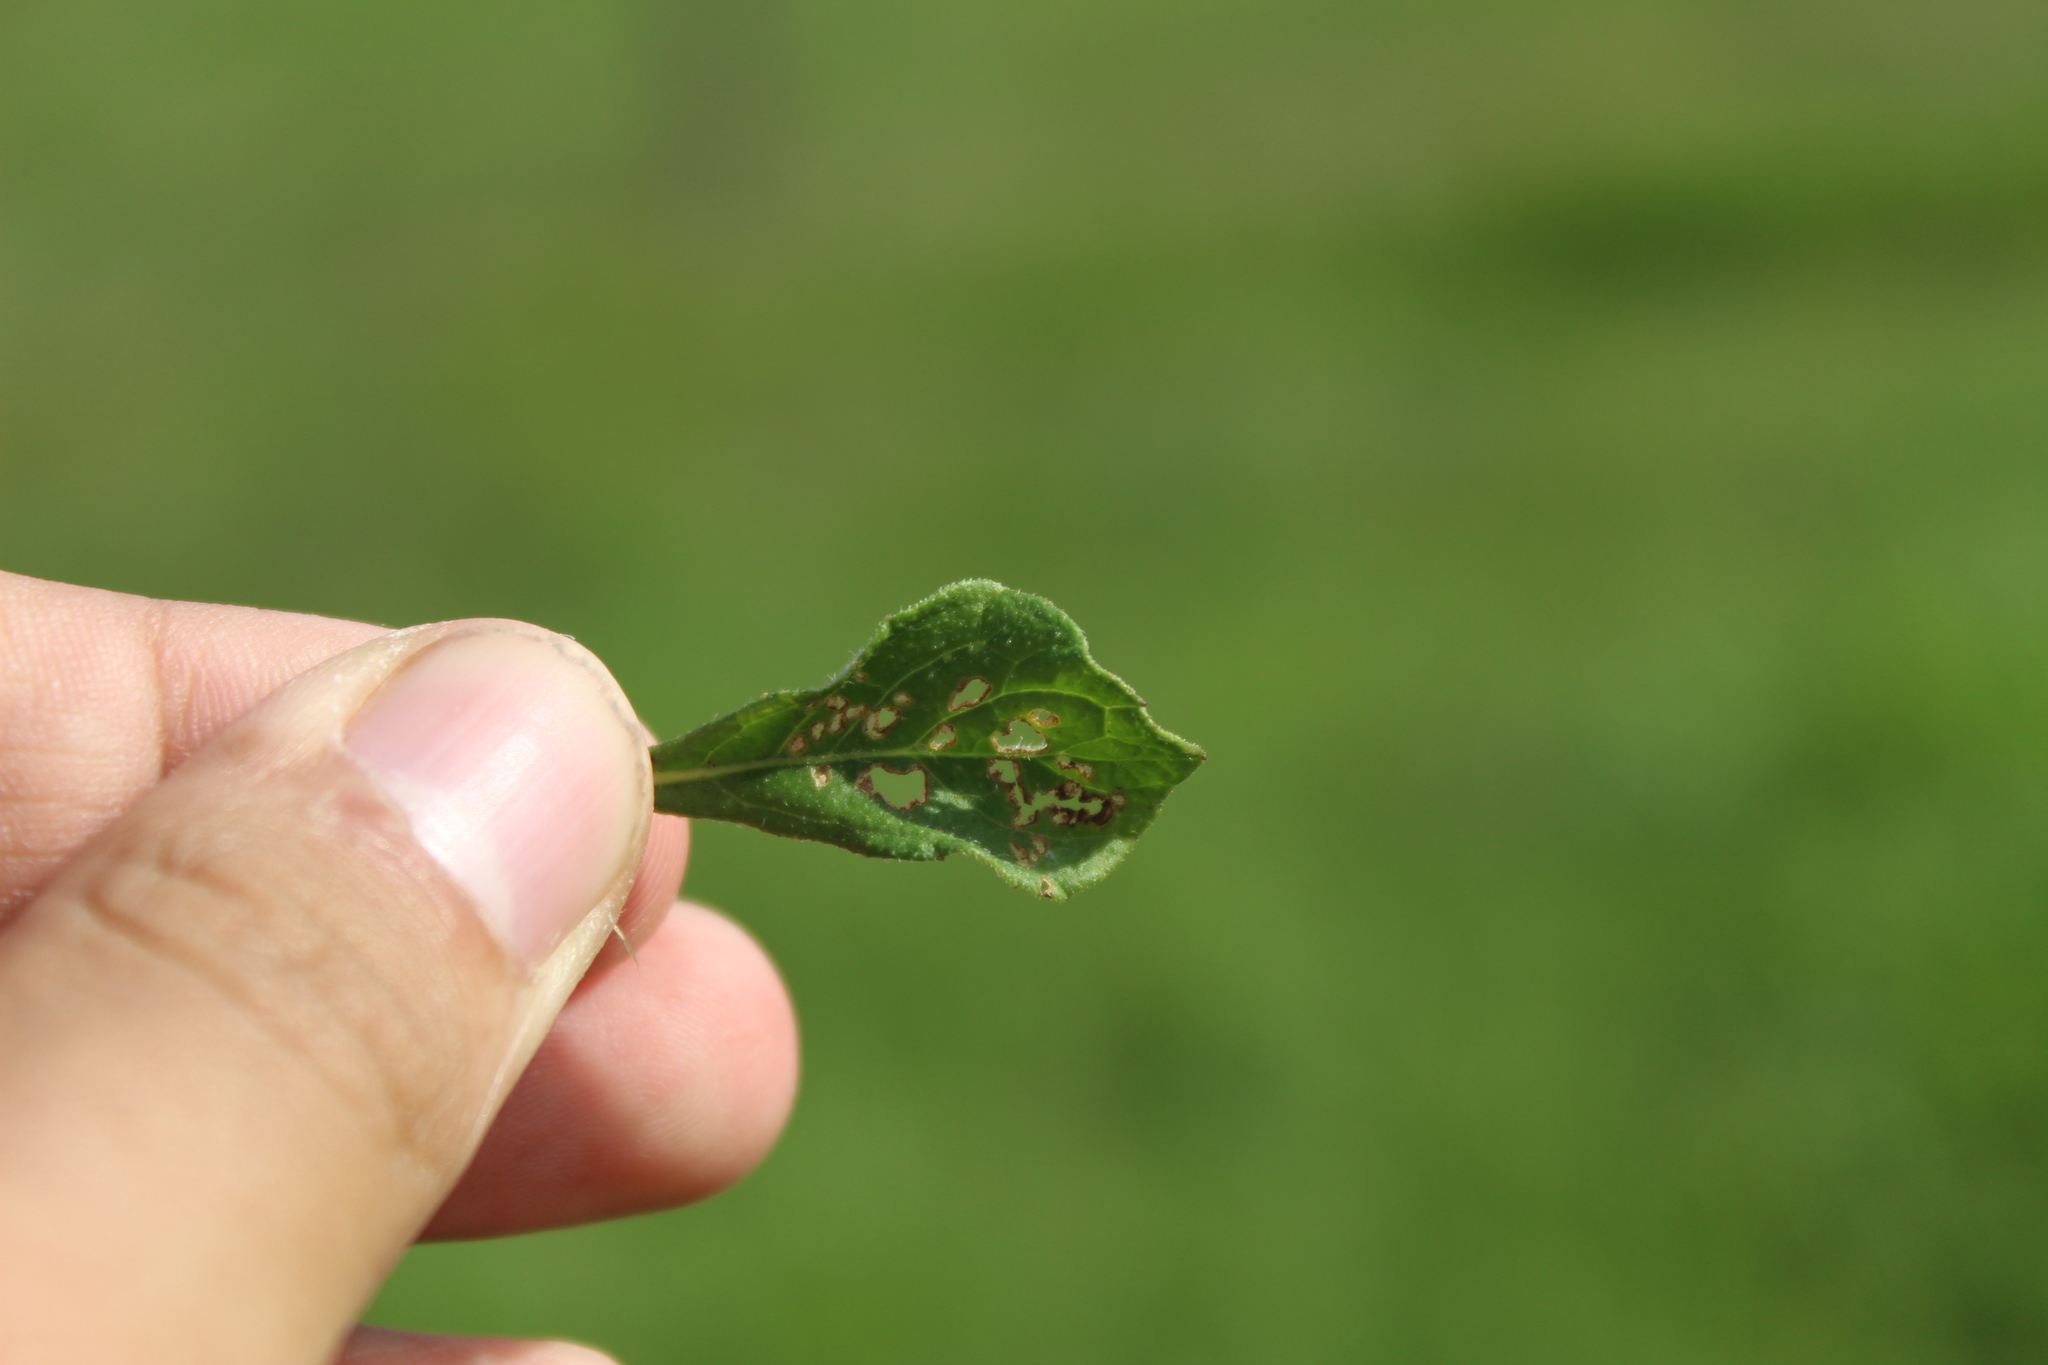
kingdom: Plantae
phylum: Tracheophyta
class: Magnoliopsida
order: Asterales
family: Asteraceae
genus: Cyanthillium
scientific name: Cyanthillium cinereum
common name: Little ironweed
